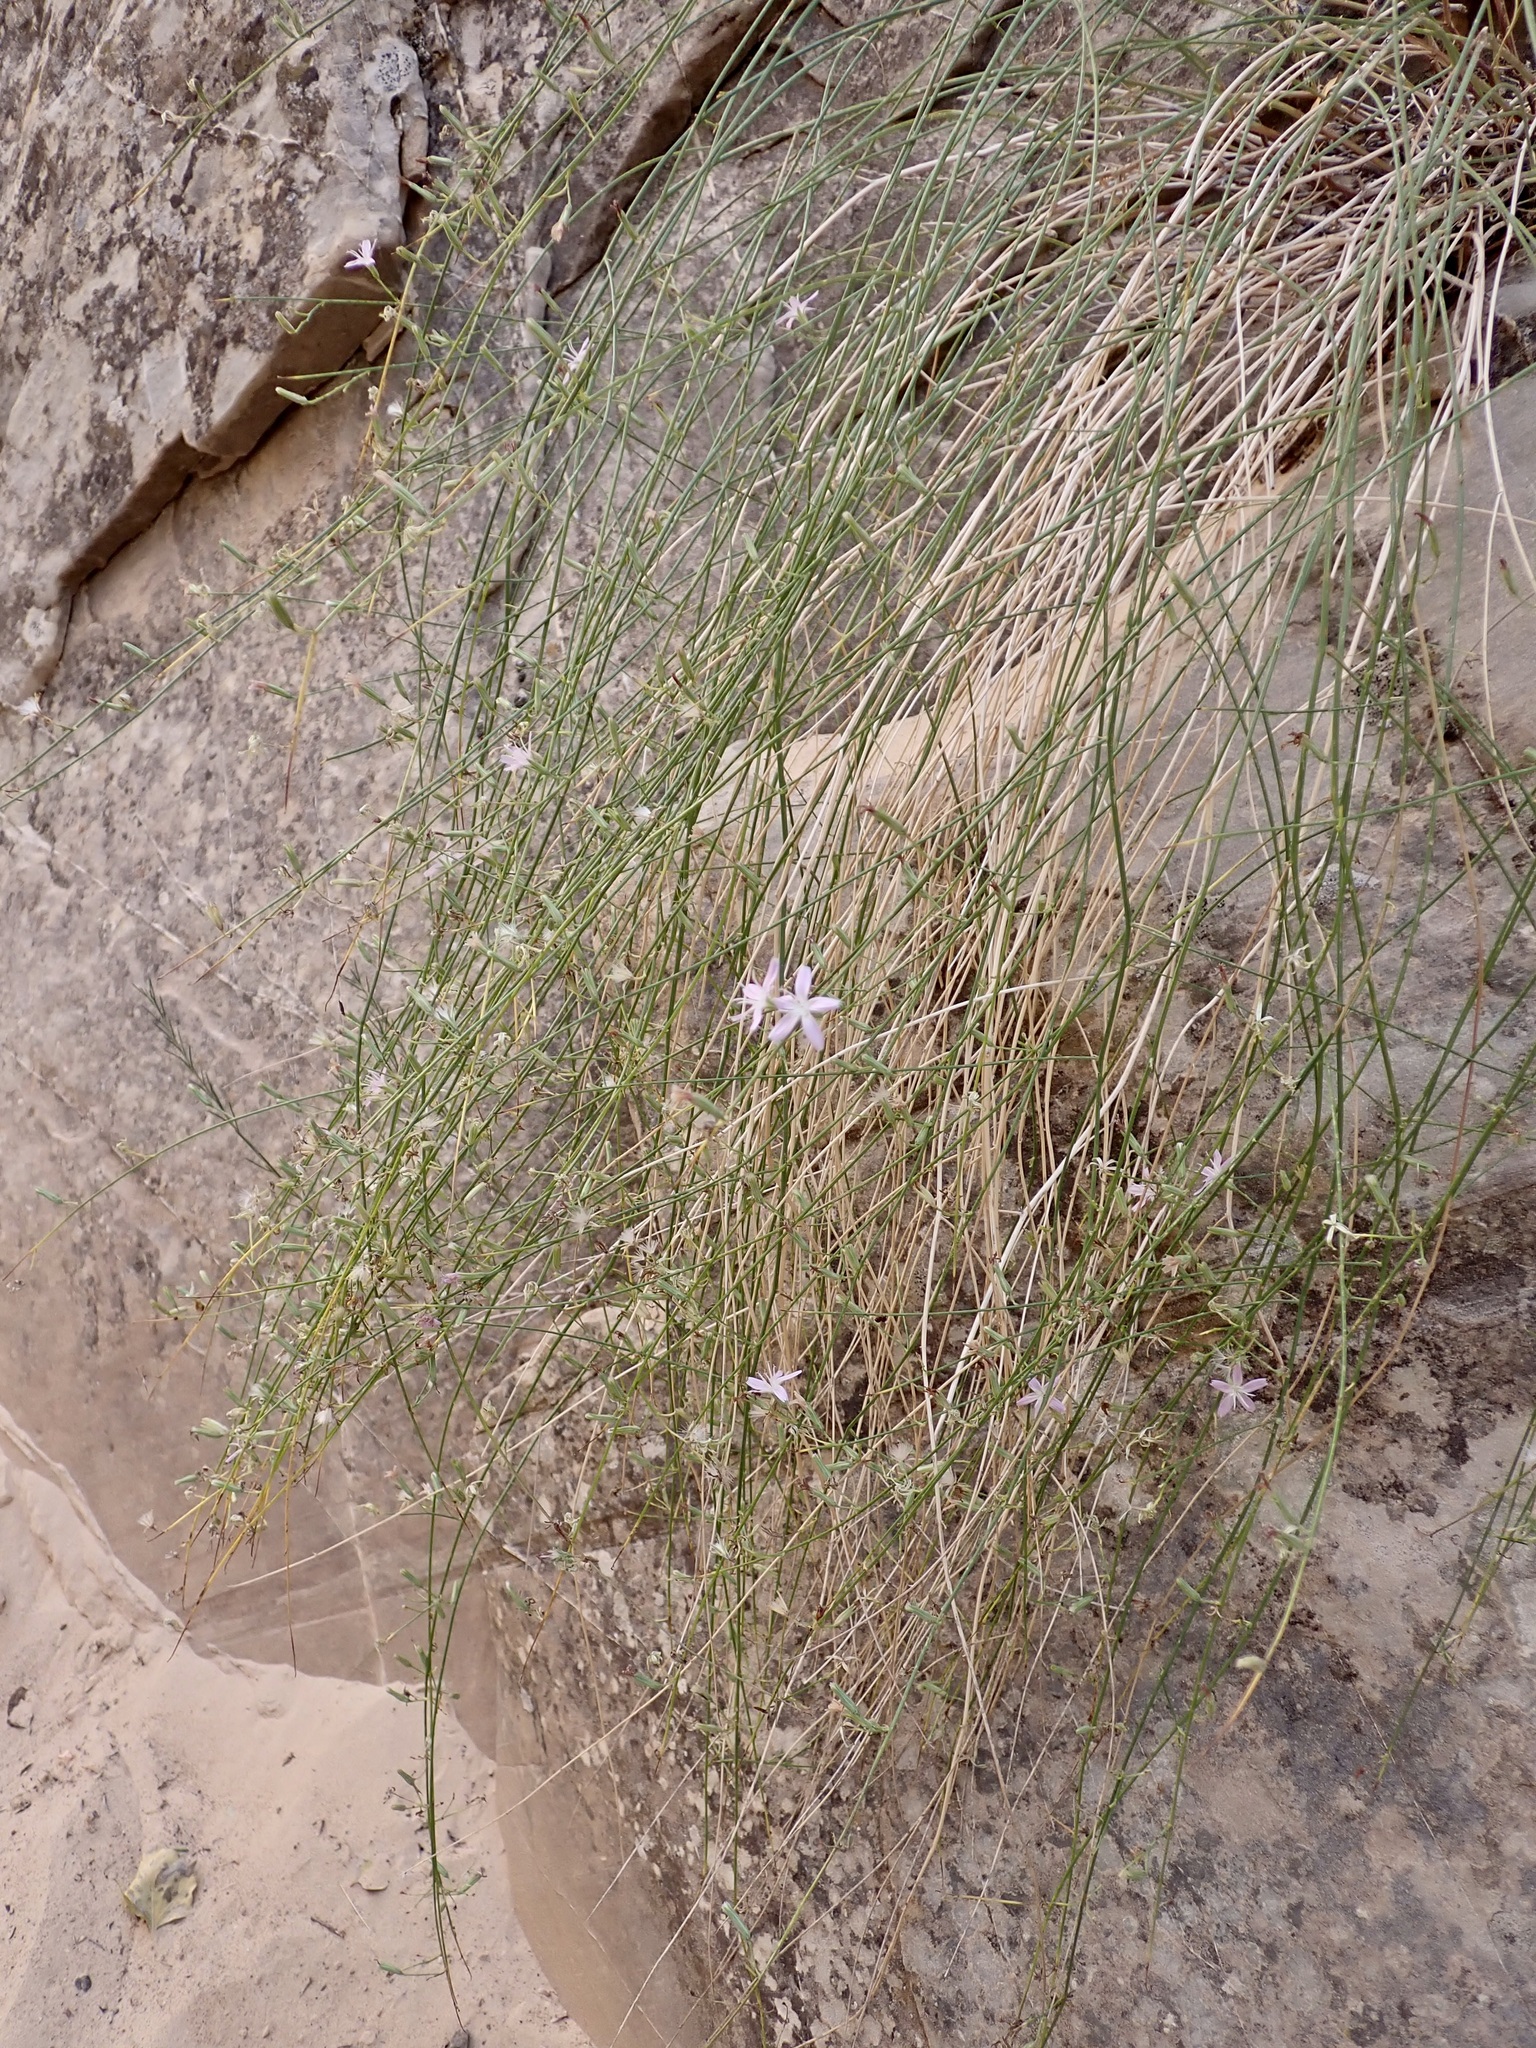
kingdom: Plantae
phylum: Tracheophyta
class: Magnoliopsida
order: Asterales
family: Asteraceae
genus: Stephanomeria
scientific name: Stephanomeria tenuifolia
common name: Slender wirelettuce
